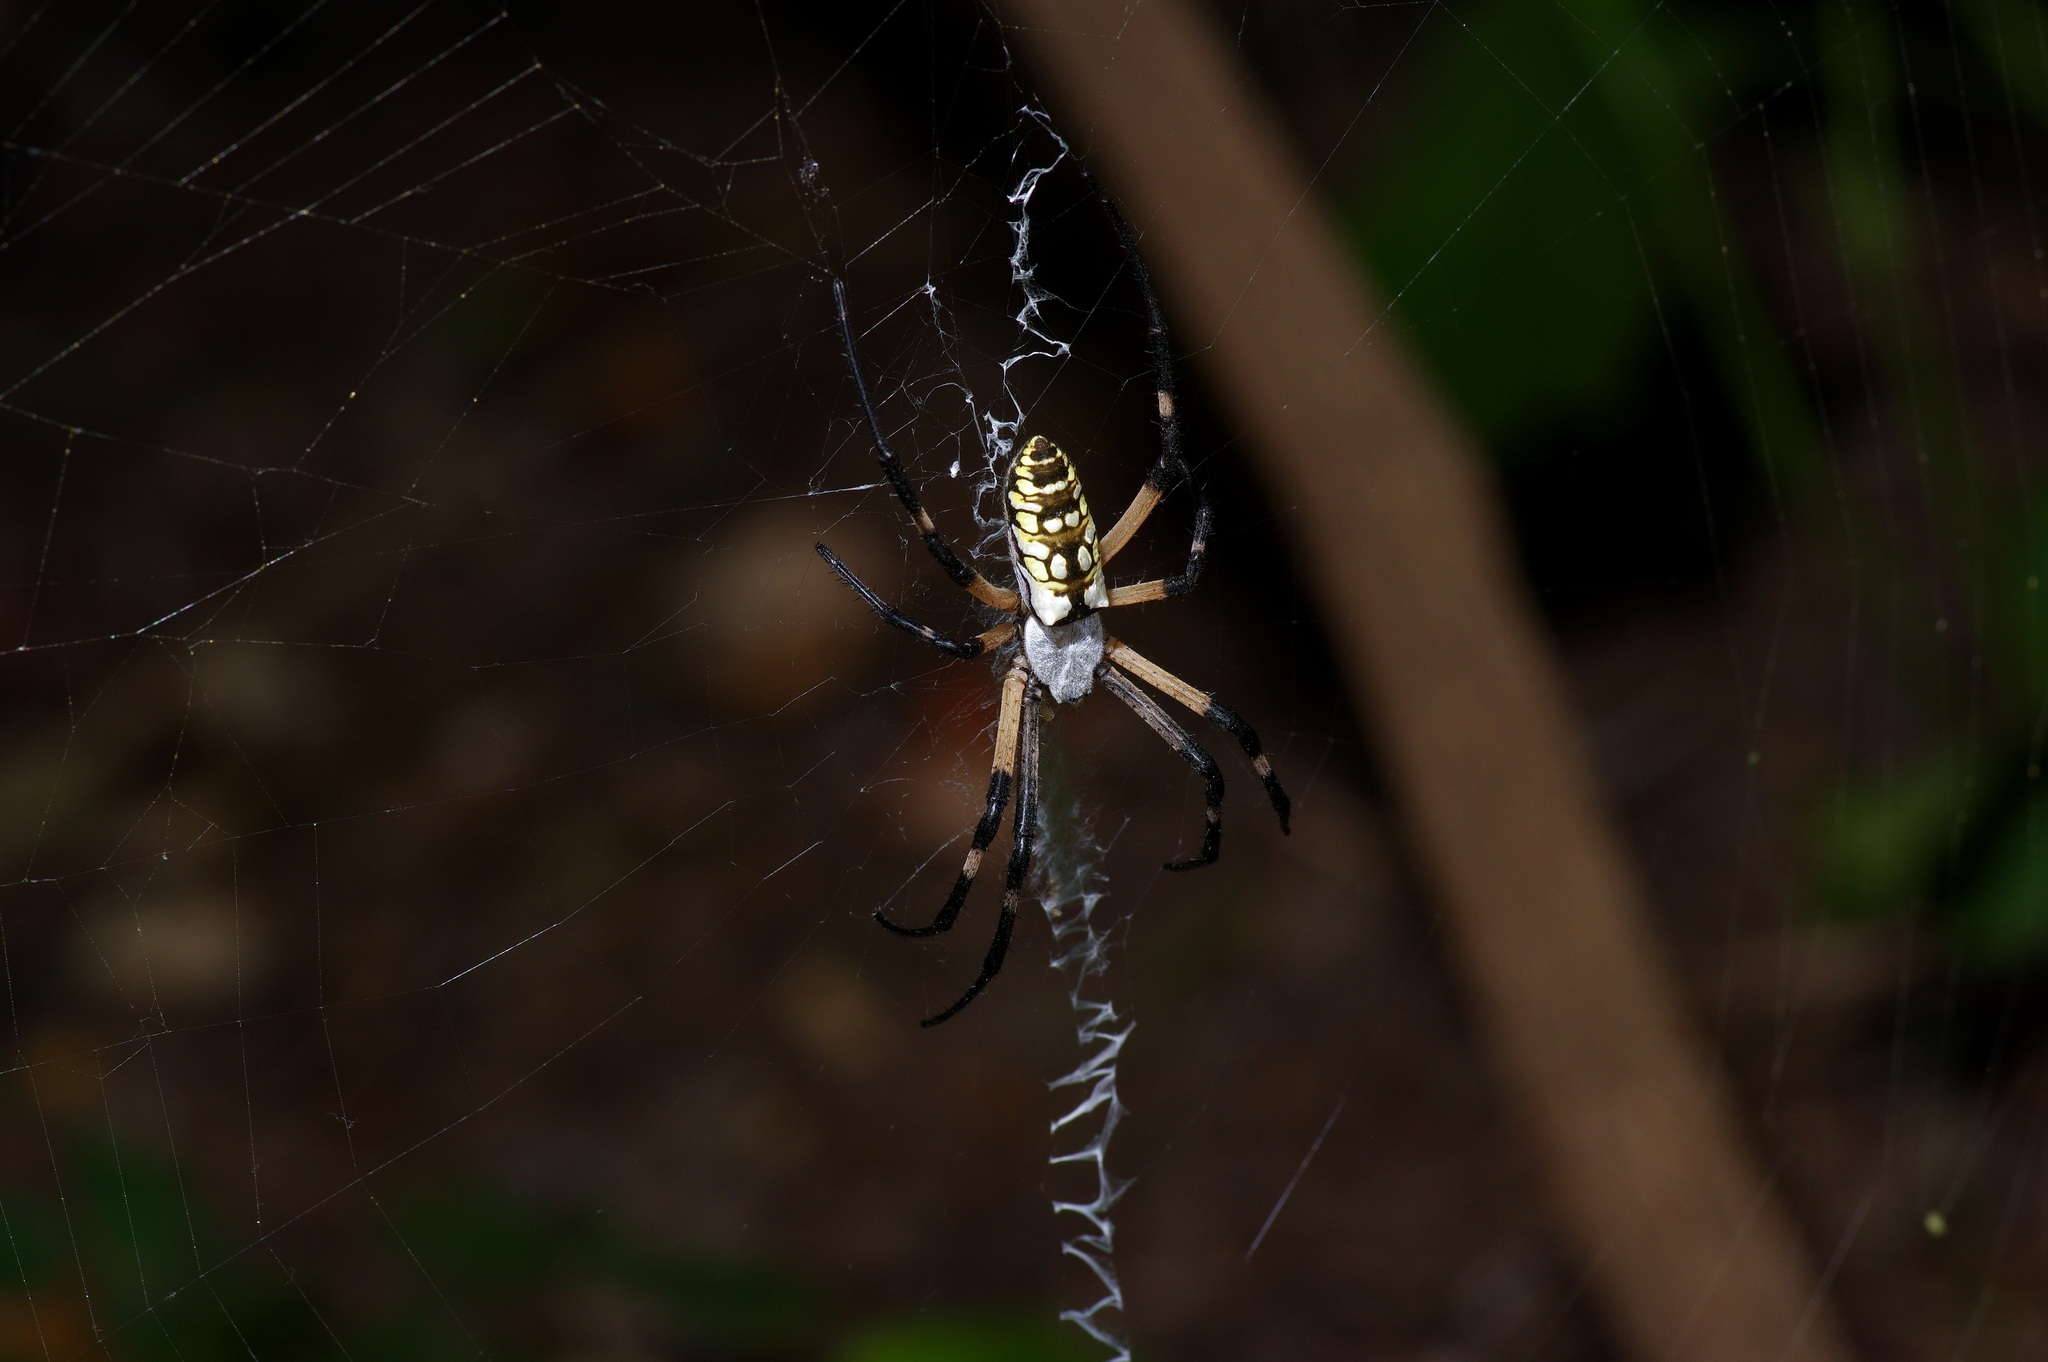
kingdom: Animalia
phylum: Arthropoda
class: Arachnida
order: Araneae
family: Araneidae
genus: Argiope
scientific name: Argiope aurantia
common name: Orb weavers
